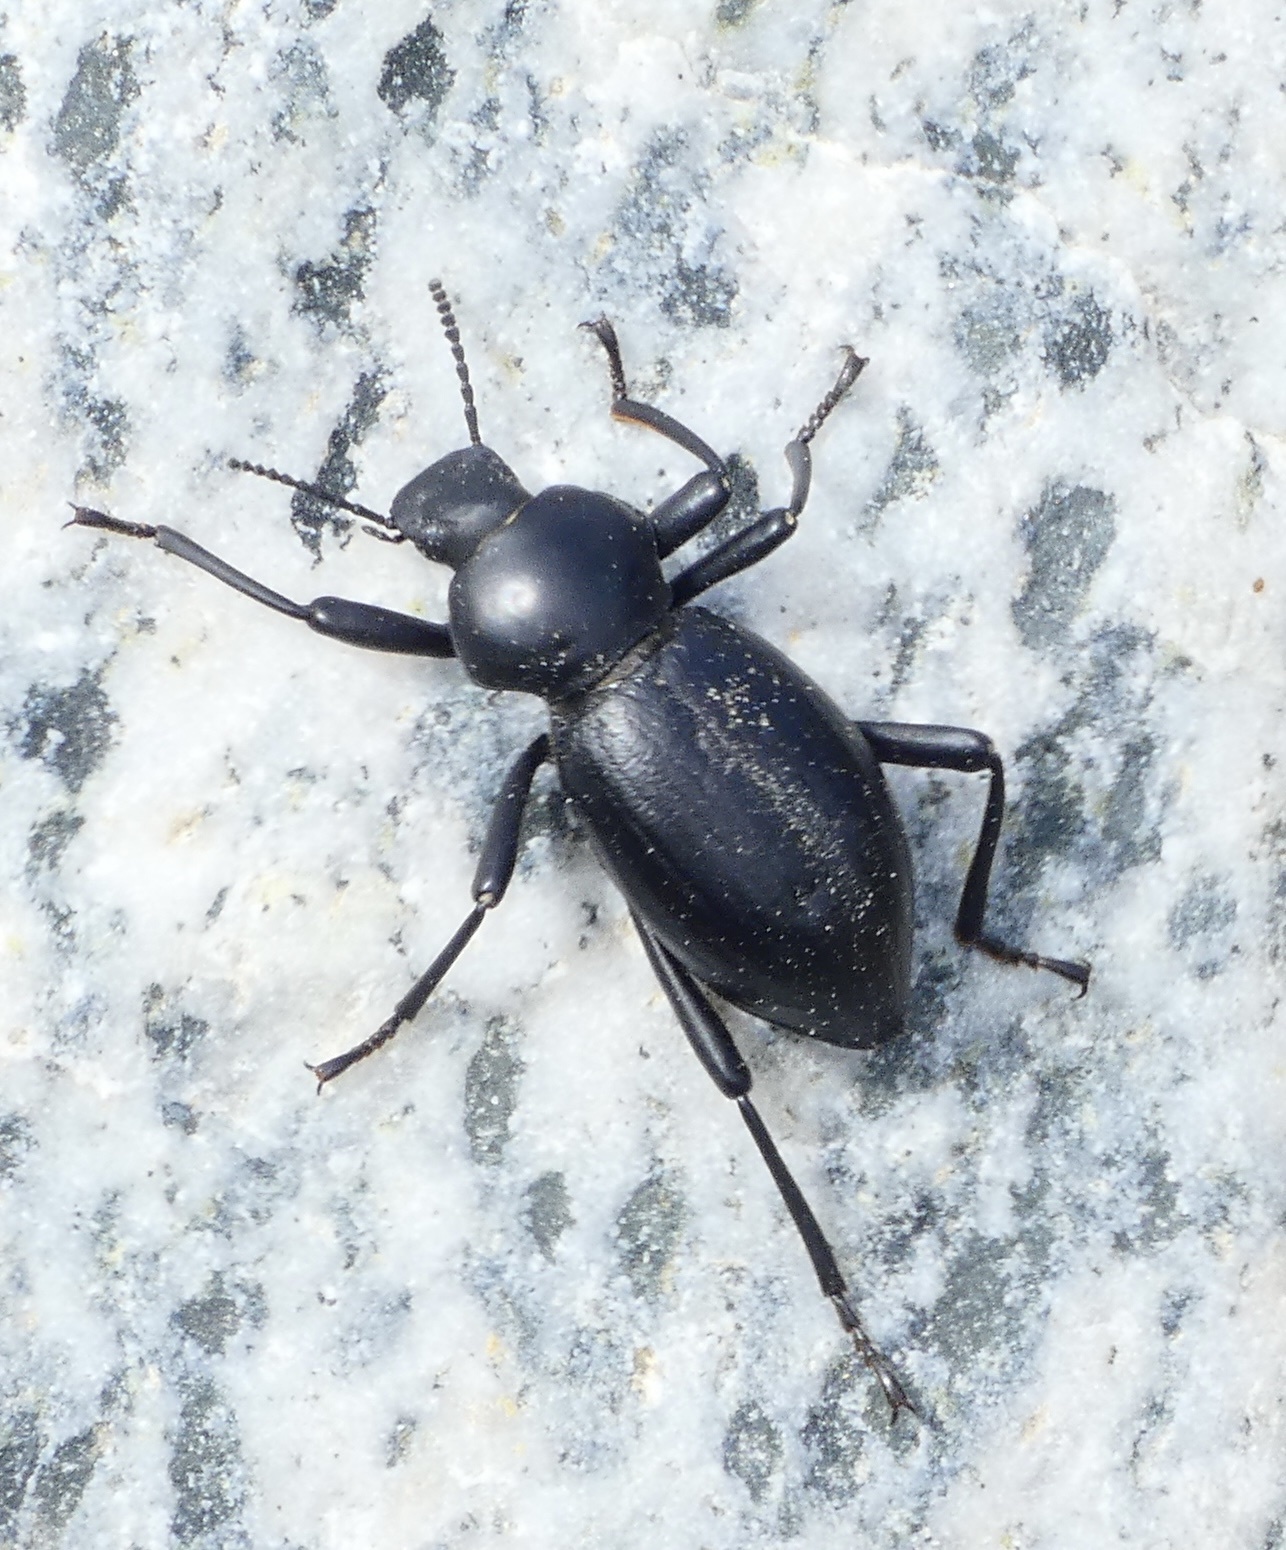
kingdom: Animalia
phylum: Arthropoda
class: Insecta
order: Coleoptera
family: Tenebrionidae
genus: Coelocnemis
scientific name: Coelocnemis dilaticollis
